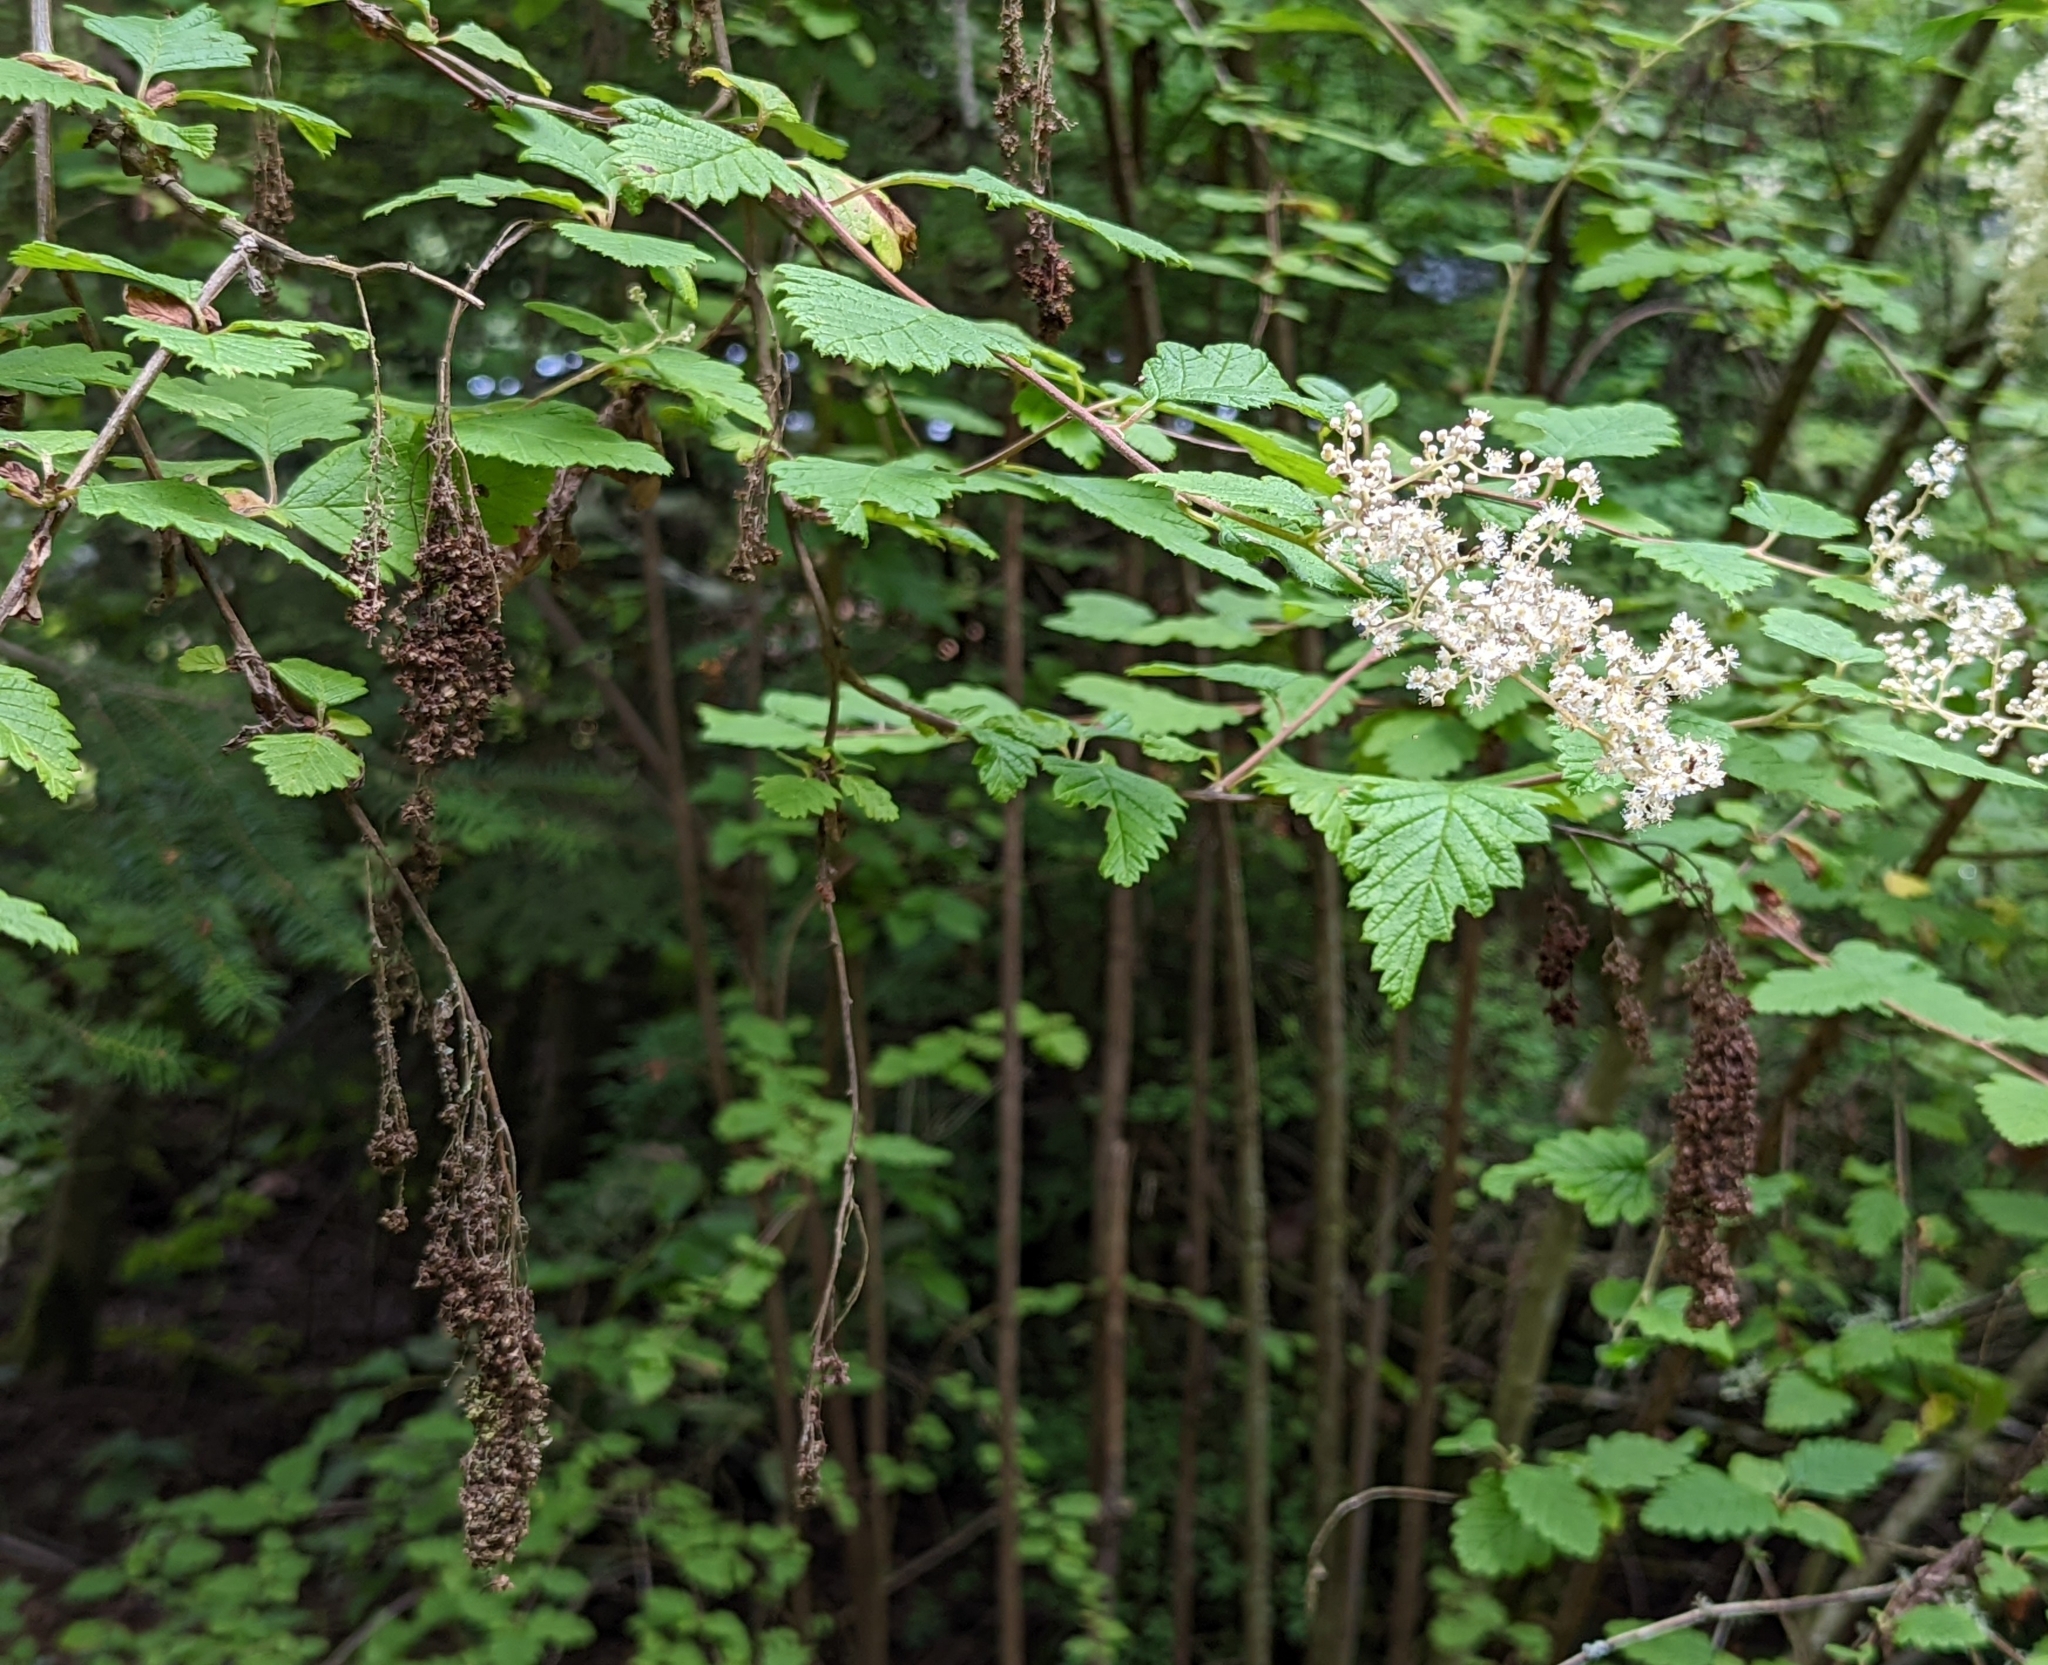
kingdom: Plantae
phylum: Tracheophyta
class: Magnoliopsida
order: Rosales
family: Rosaceae
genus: Holodiscus
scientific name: Holodiscus discolor
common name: Oceanspray
